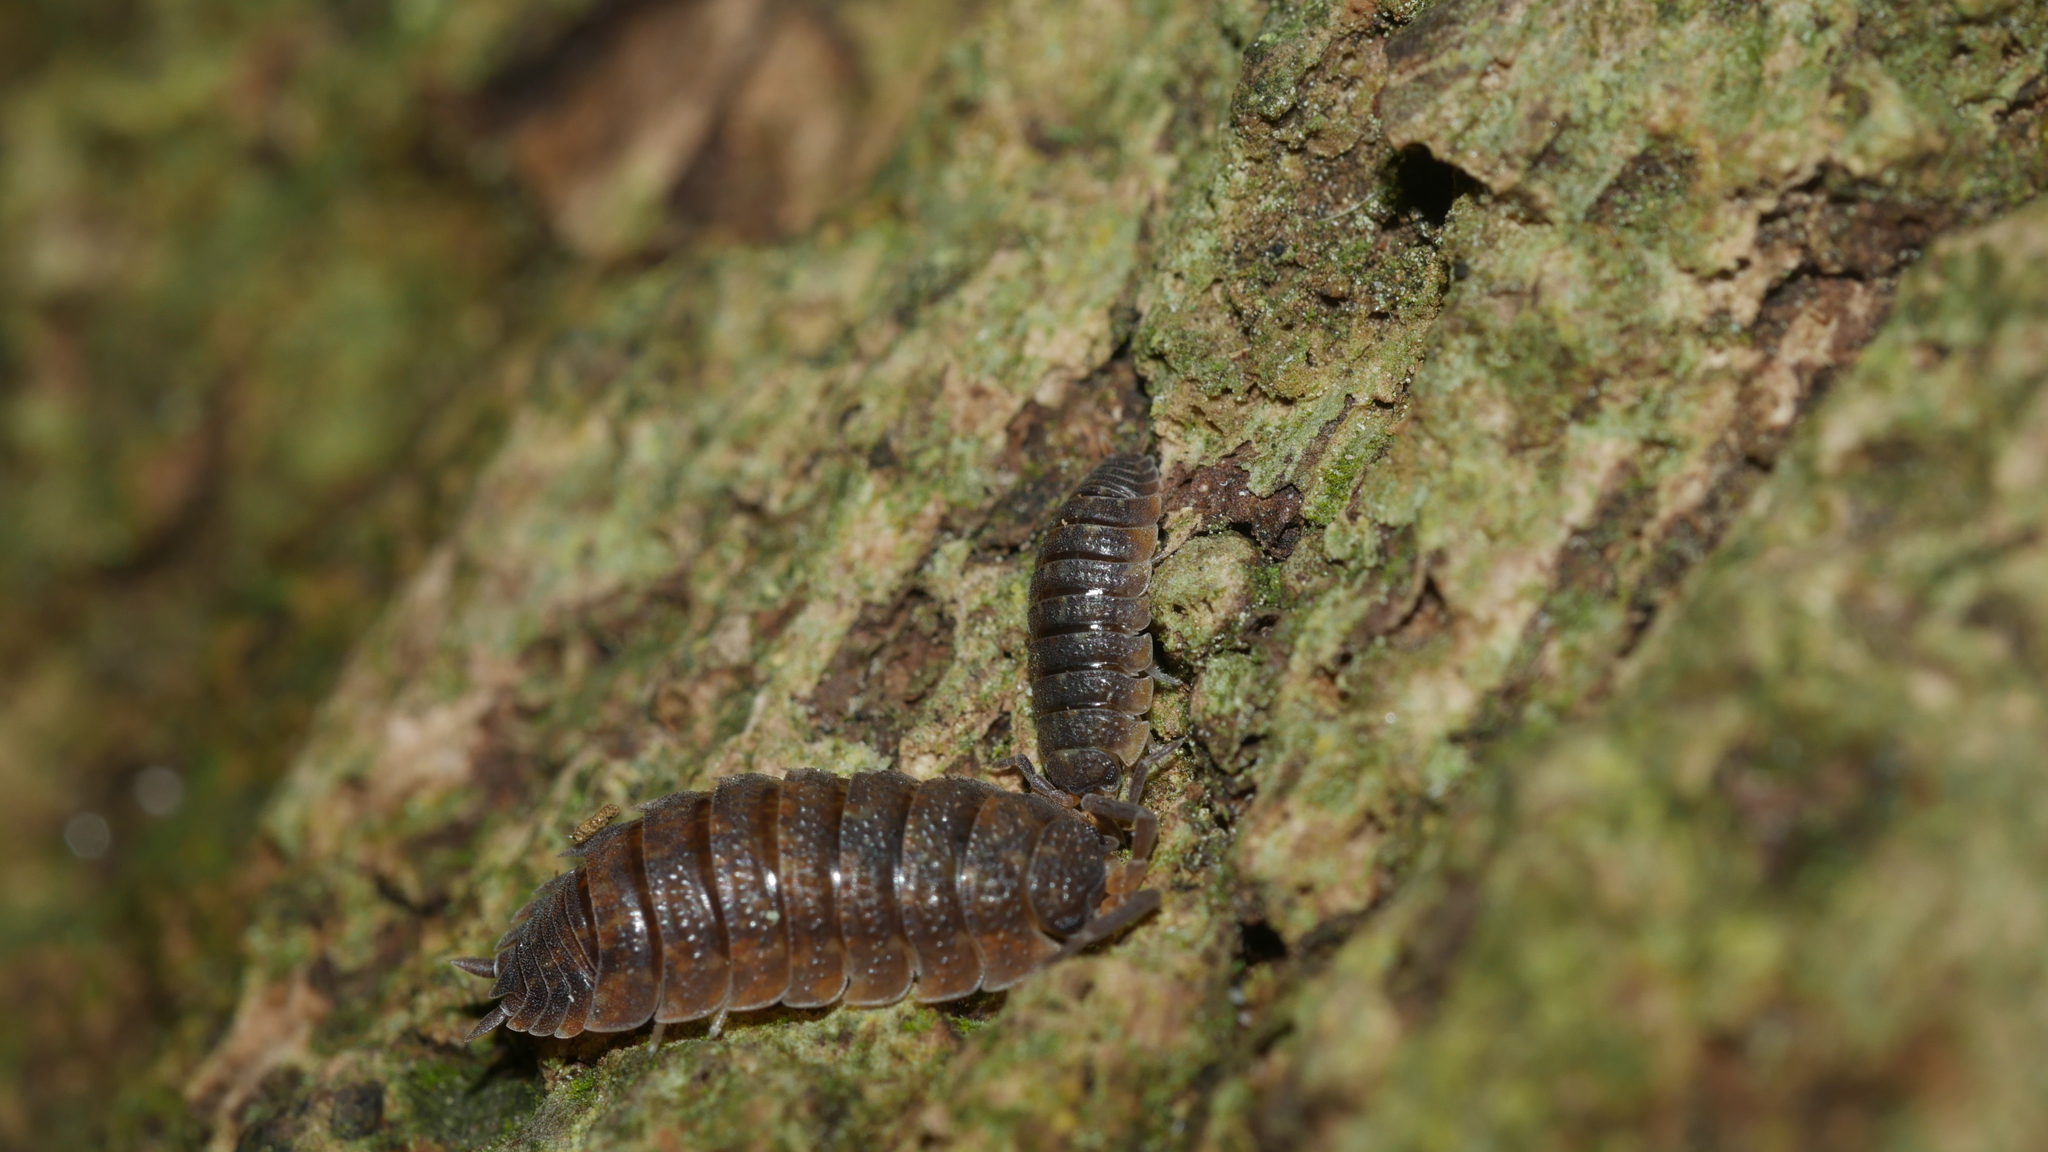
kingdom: Animalia
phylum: Arthropoda
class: Malacostraca
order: Isopoda
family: Porcellionidae
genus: Porcellio
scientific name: Porcellio scaber
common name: Common rough woodlouse
